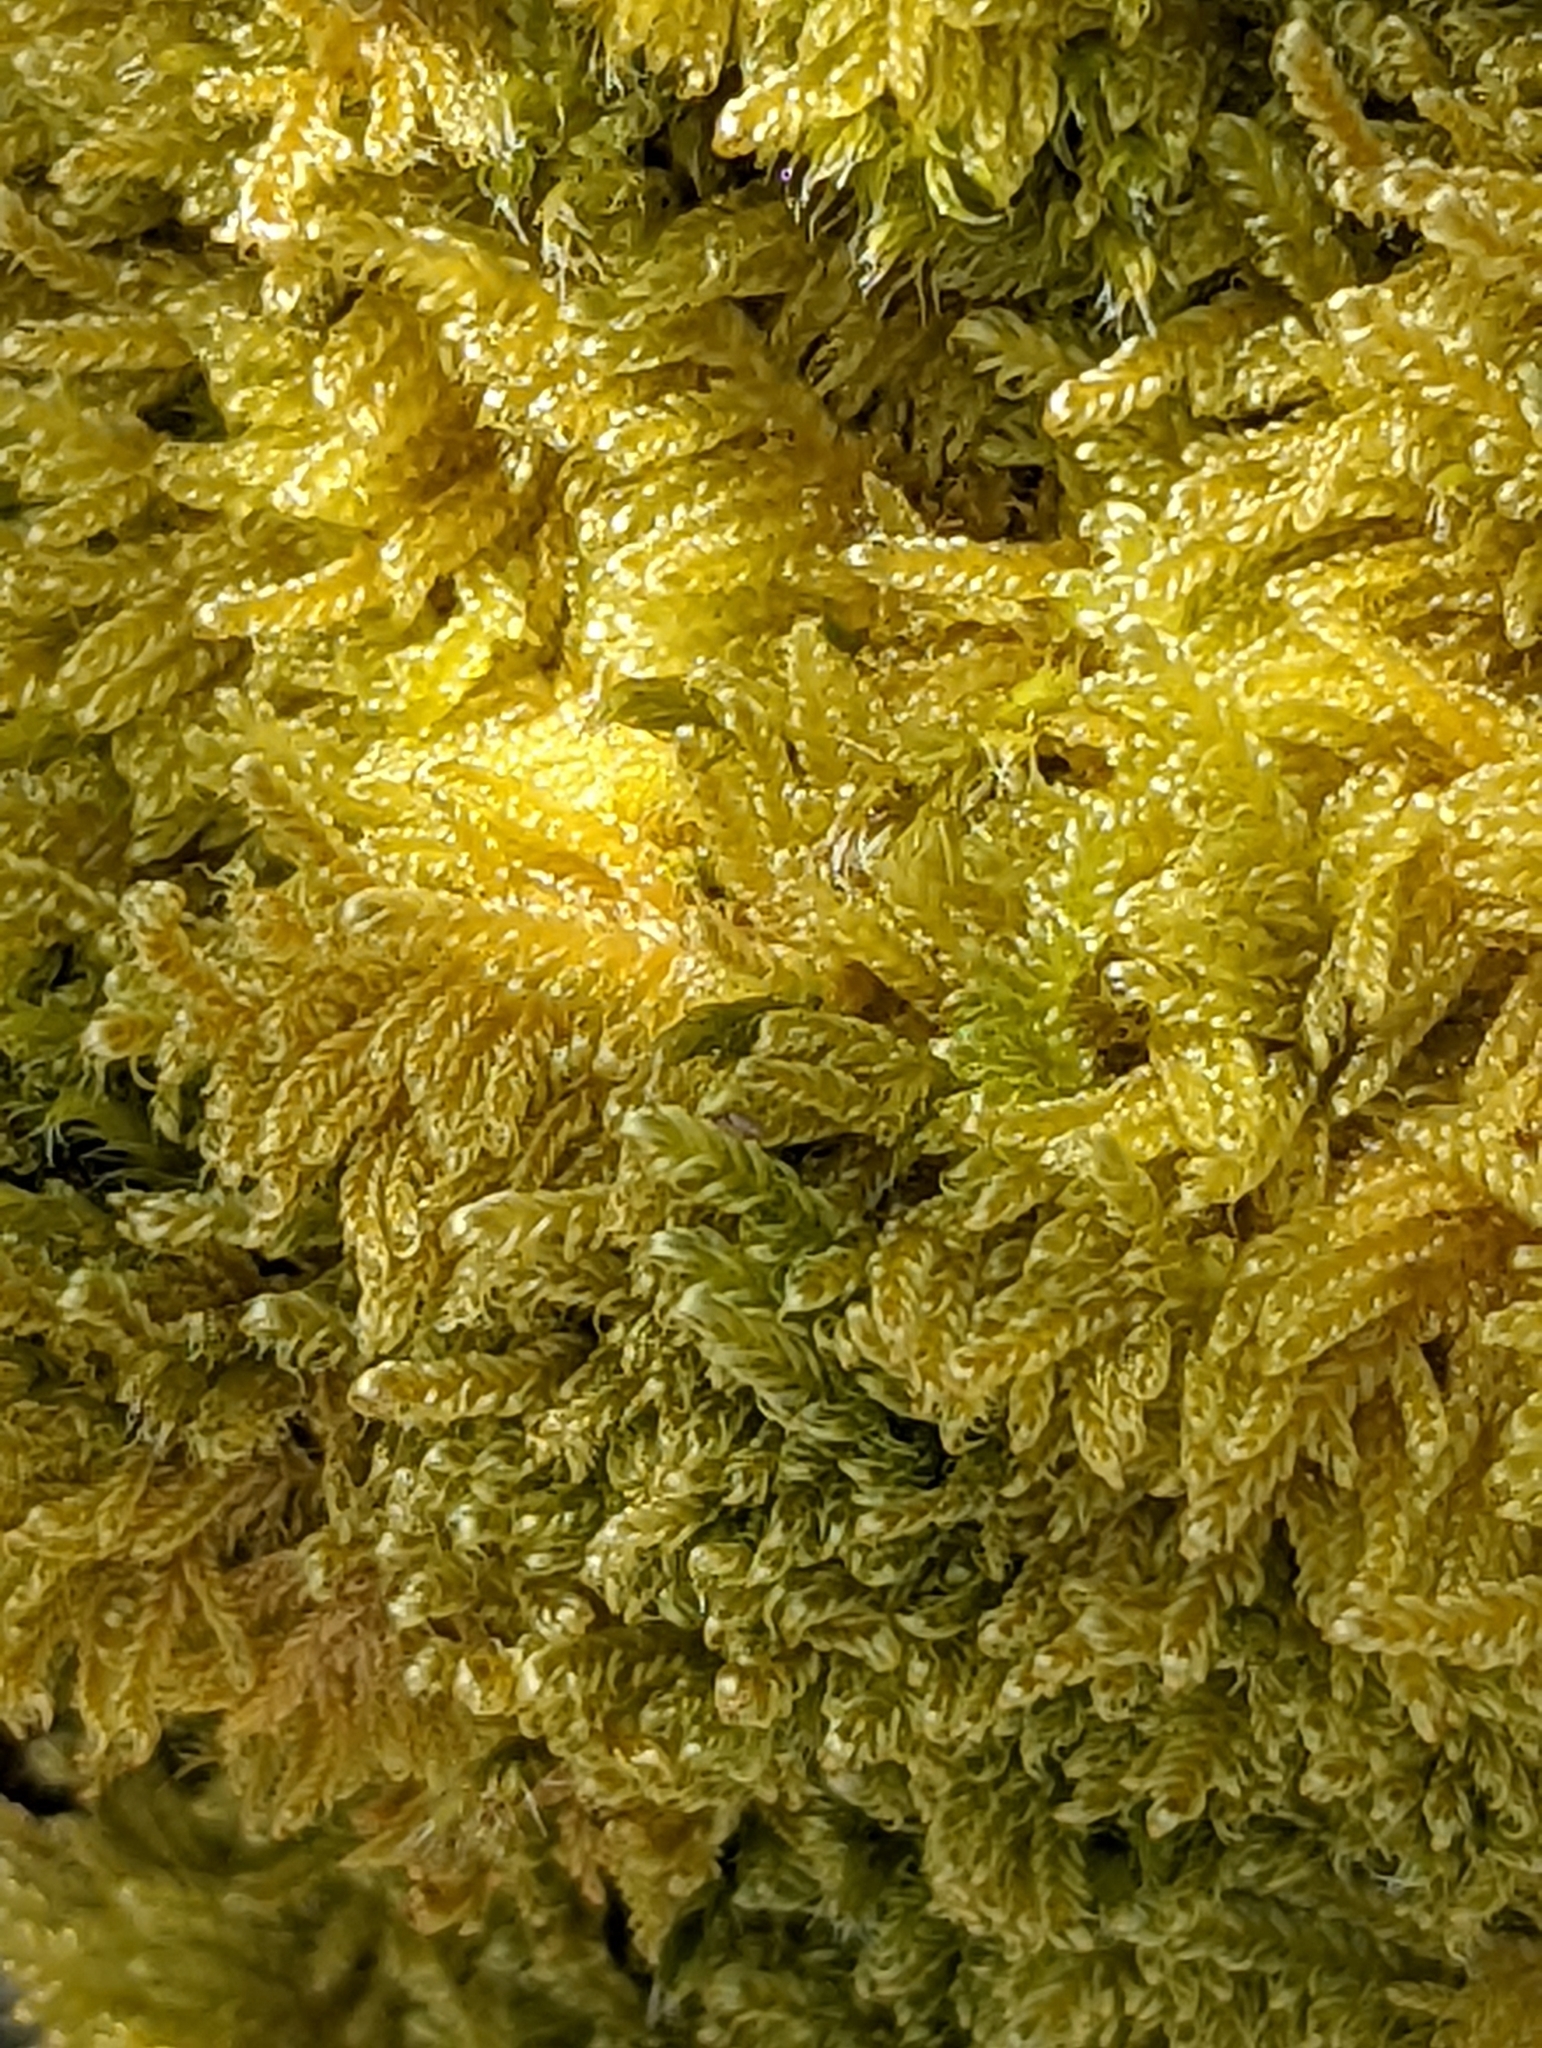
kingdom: Plantae
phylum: Bryophyta
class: Bryopsida
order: Hypnales
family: Stereodontaceae
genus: Stereodon
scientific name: Stereodon subimponens
